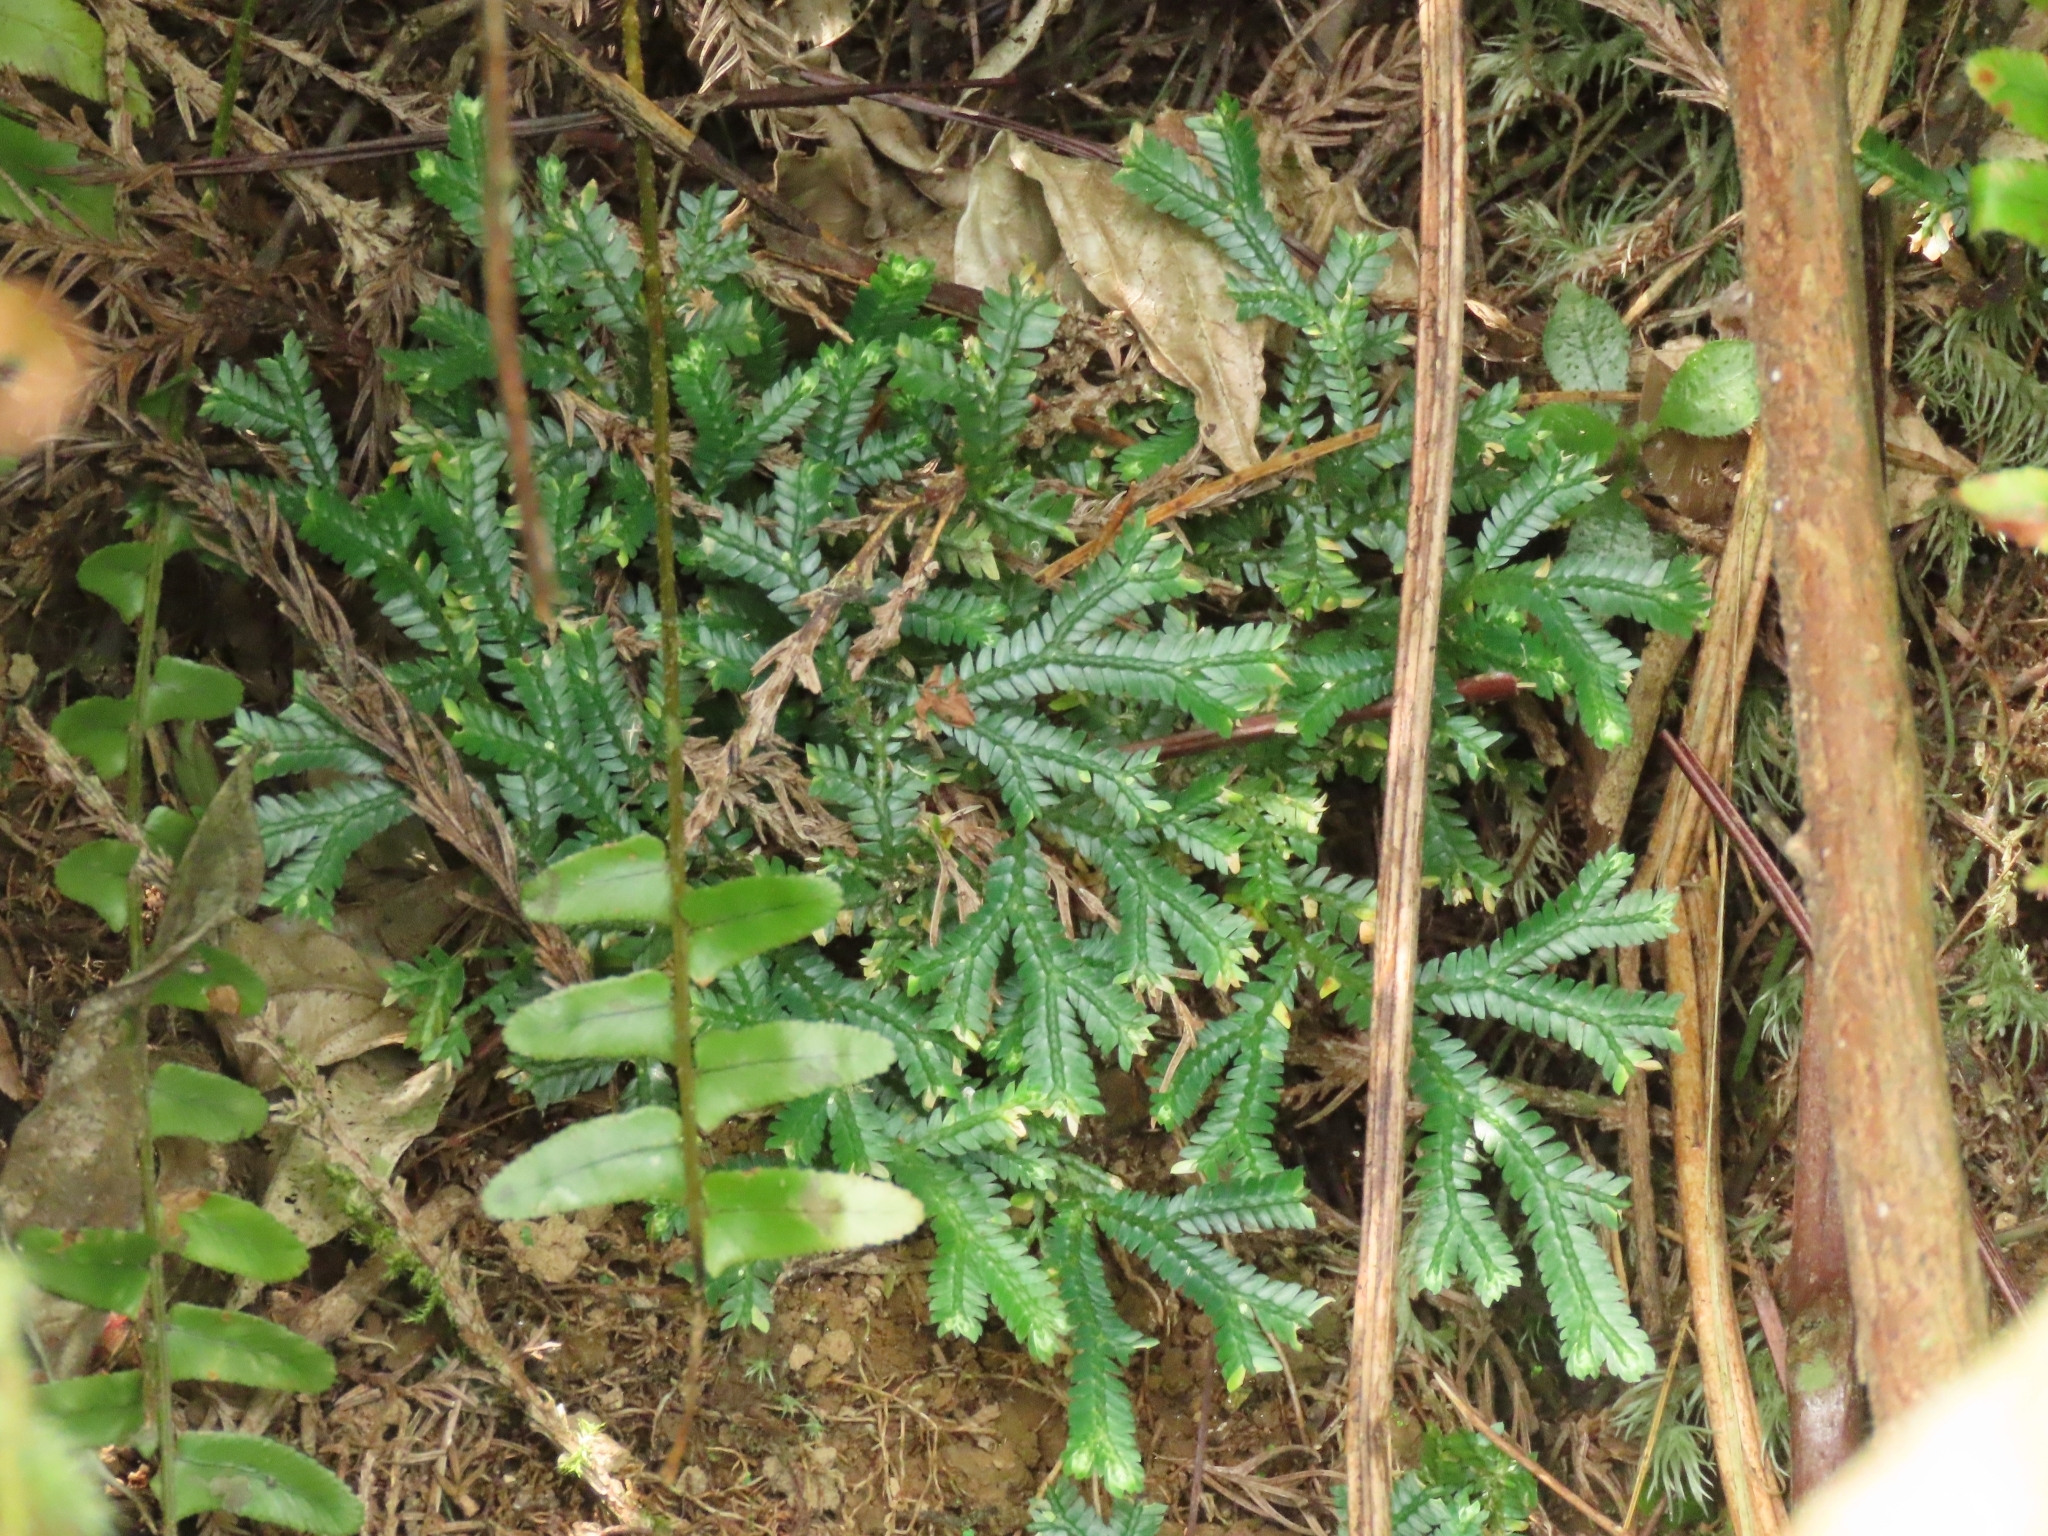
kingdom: Plantae
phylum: Tracheophyta
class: Lycopodiopsida
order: Selaginellales
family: Selaginellaceae
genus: Selaginella
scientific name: Selaginella doederleinii
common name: Greater selaginella
